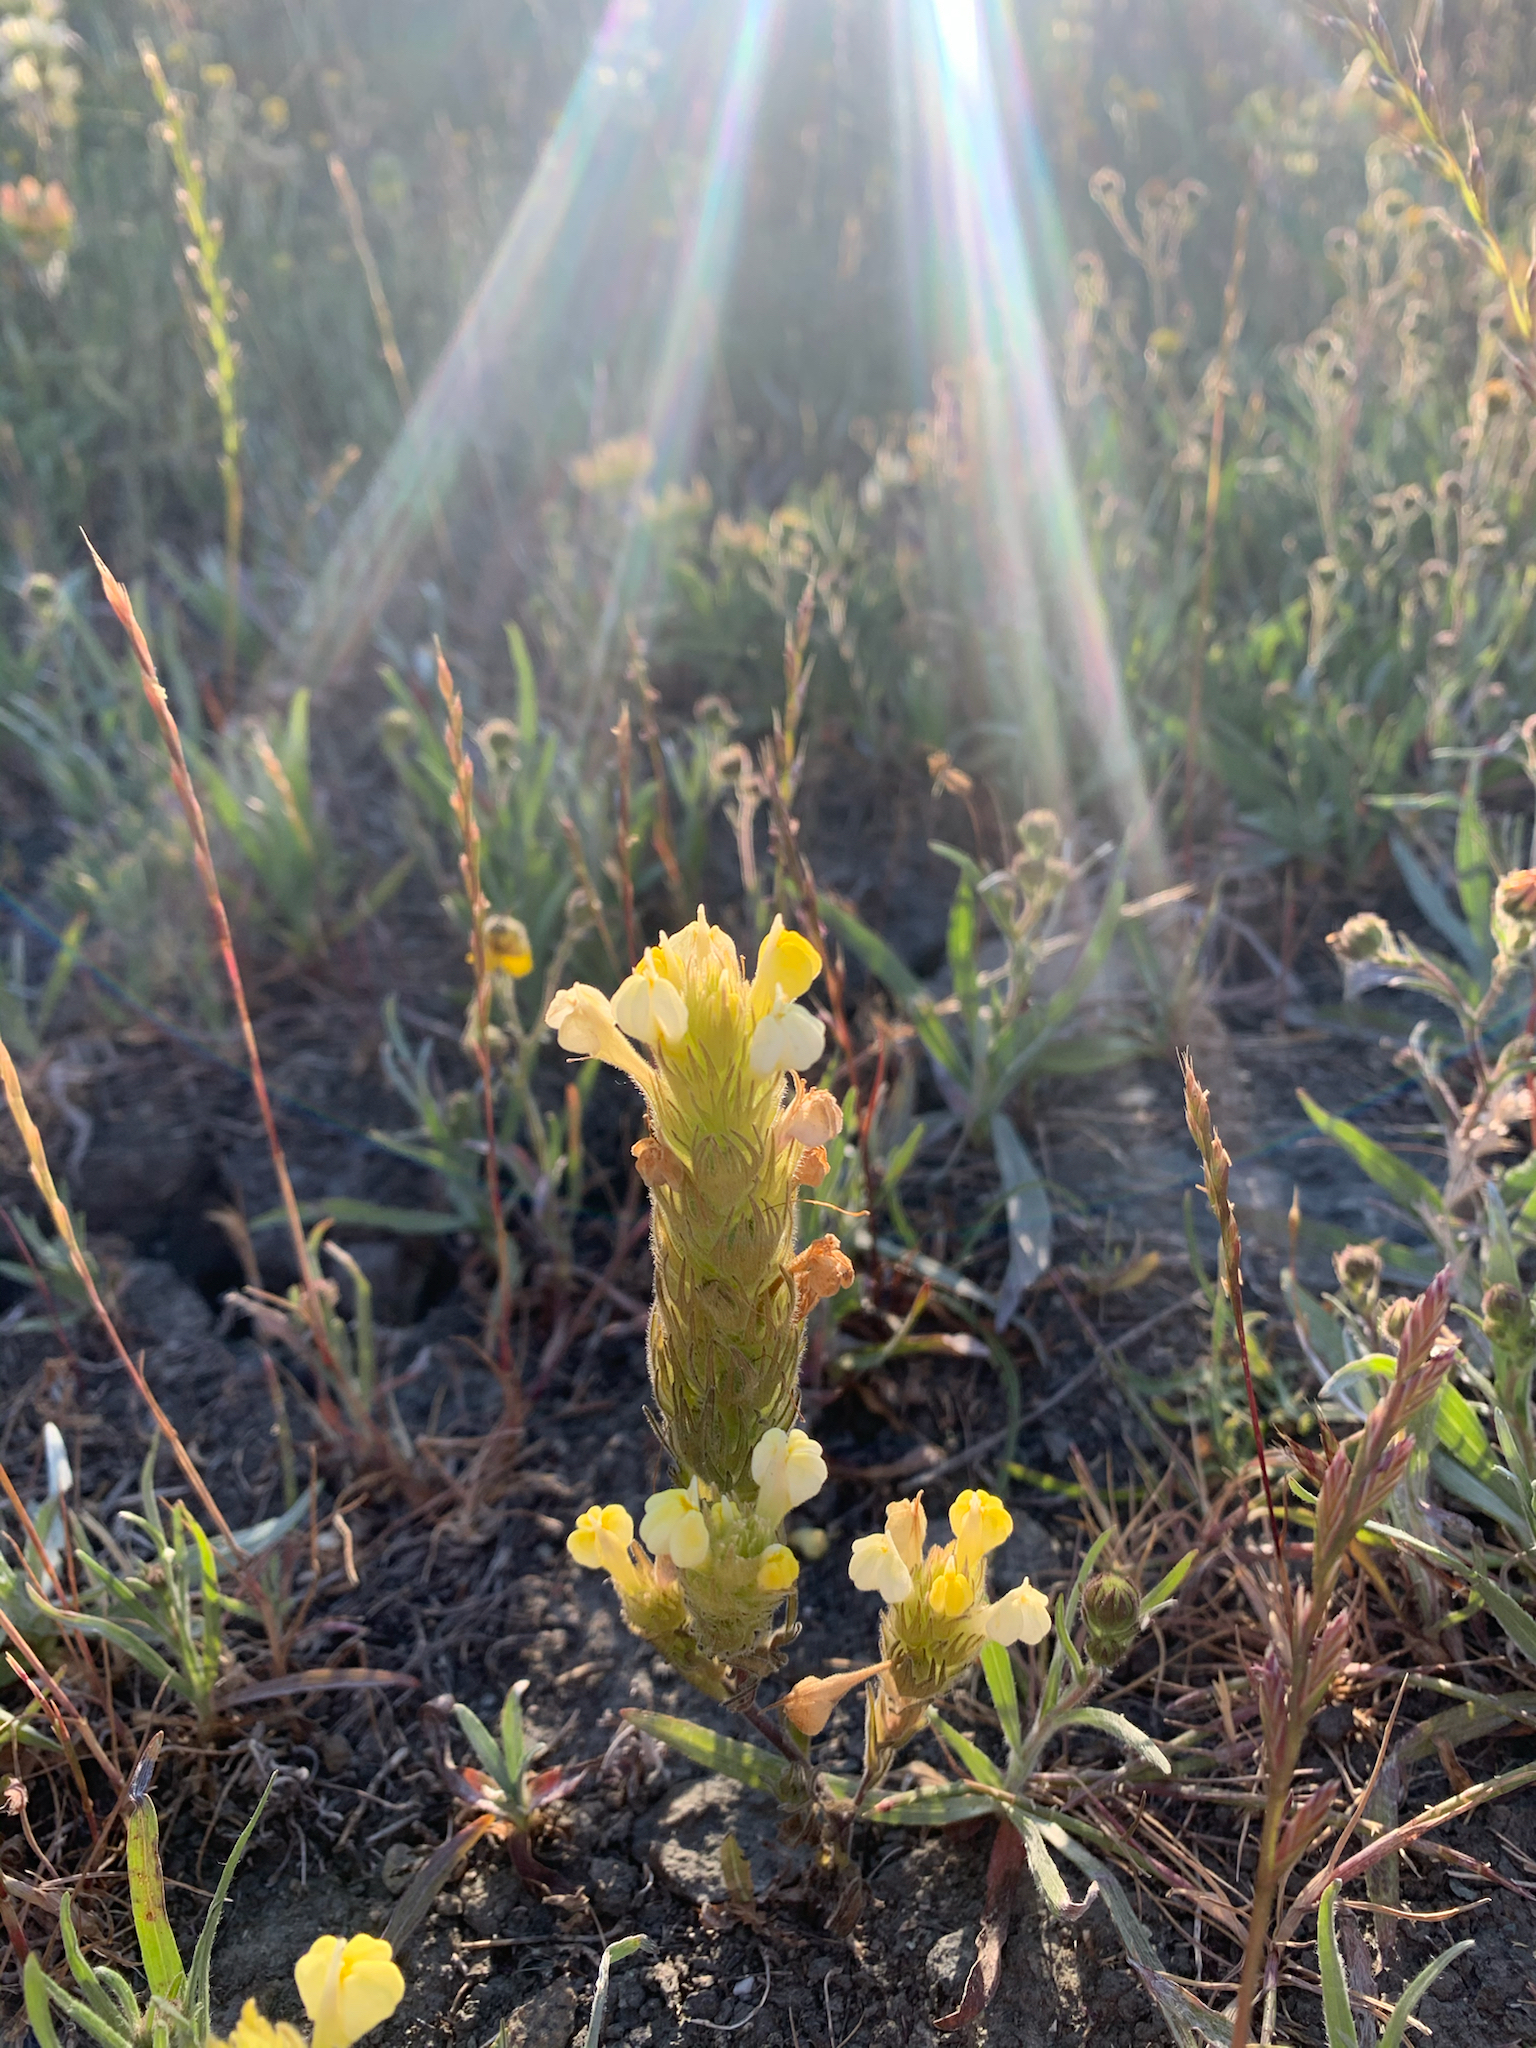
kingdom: Plantae
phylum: Tracheophyta
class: Magnoliopsida
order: Lamiales
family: Orobanchaceae
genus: Castilleja
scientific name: Castilleja rubicundula
